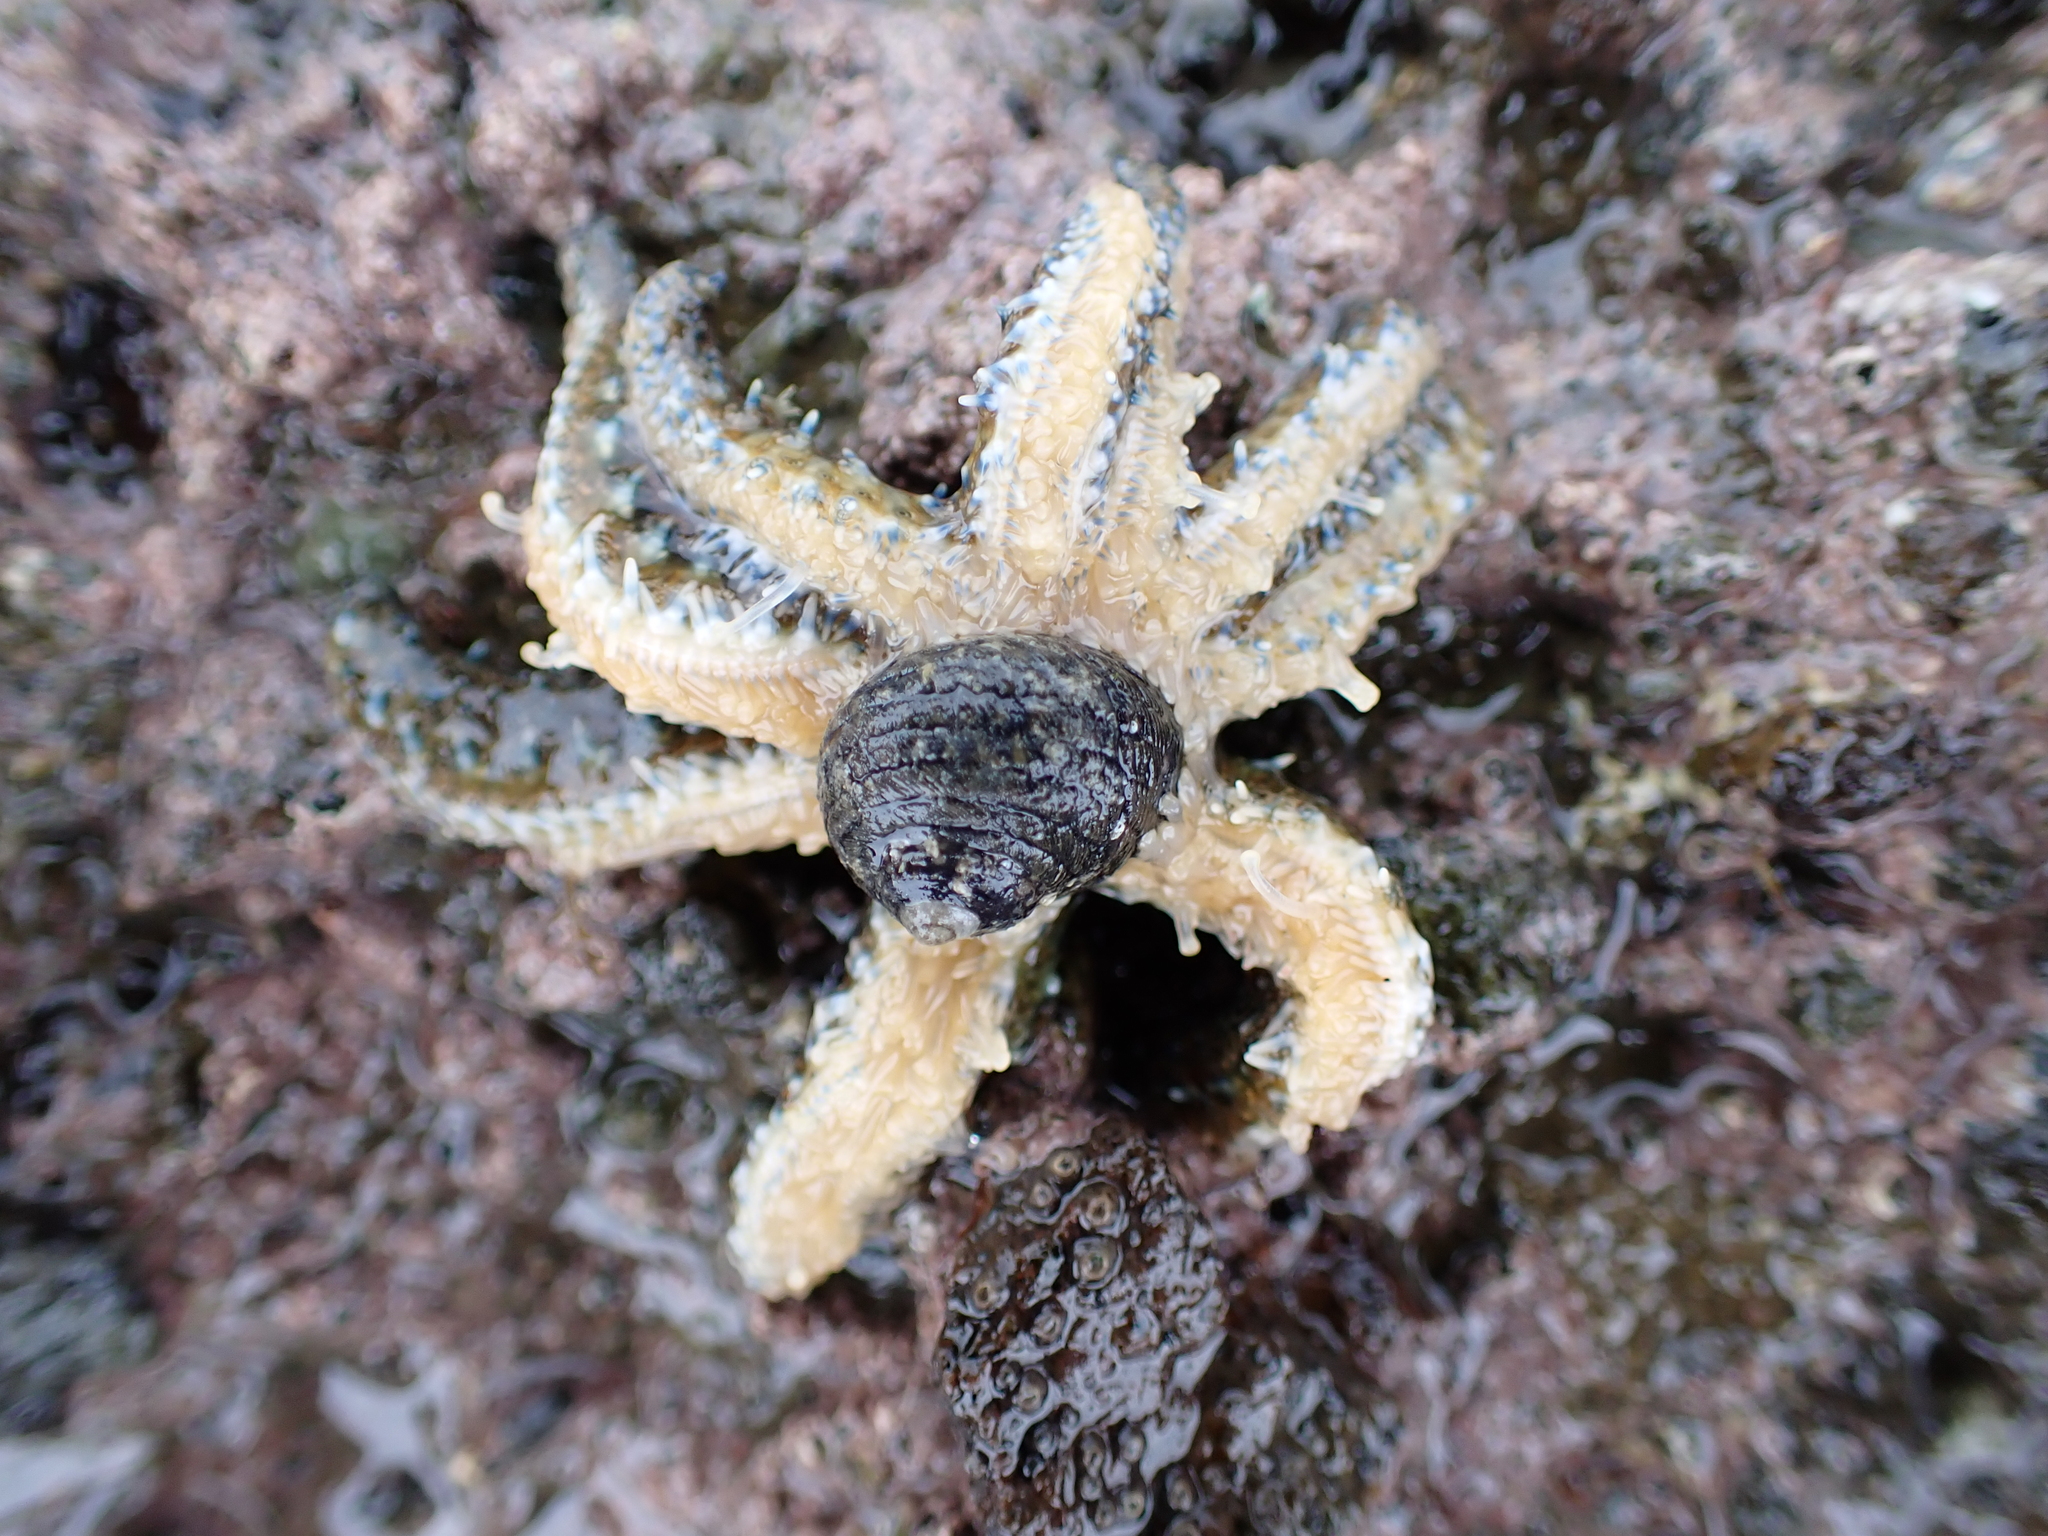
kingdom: Animalia
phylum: Echinodermata
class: Asteroidea
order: Forcipulatida
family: Asteriidae
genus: Coscinasterias
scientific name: Coscinasterias muricata
